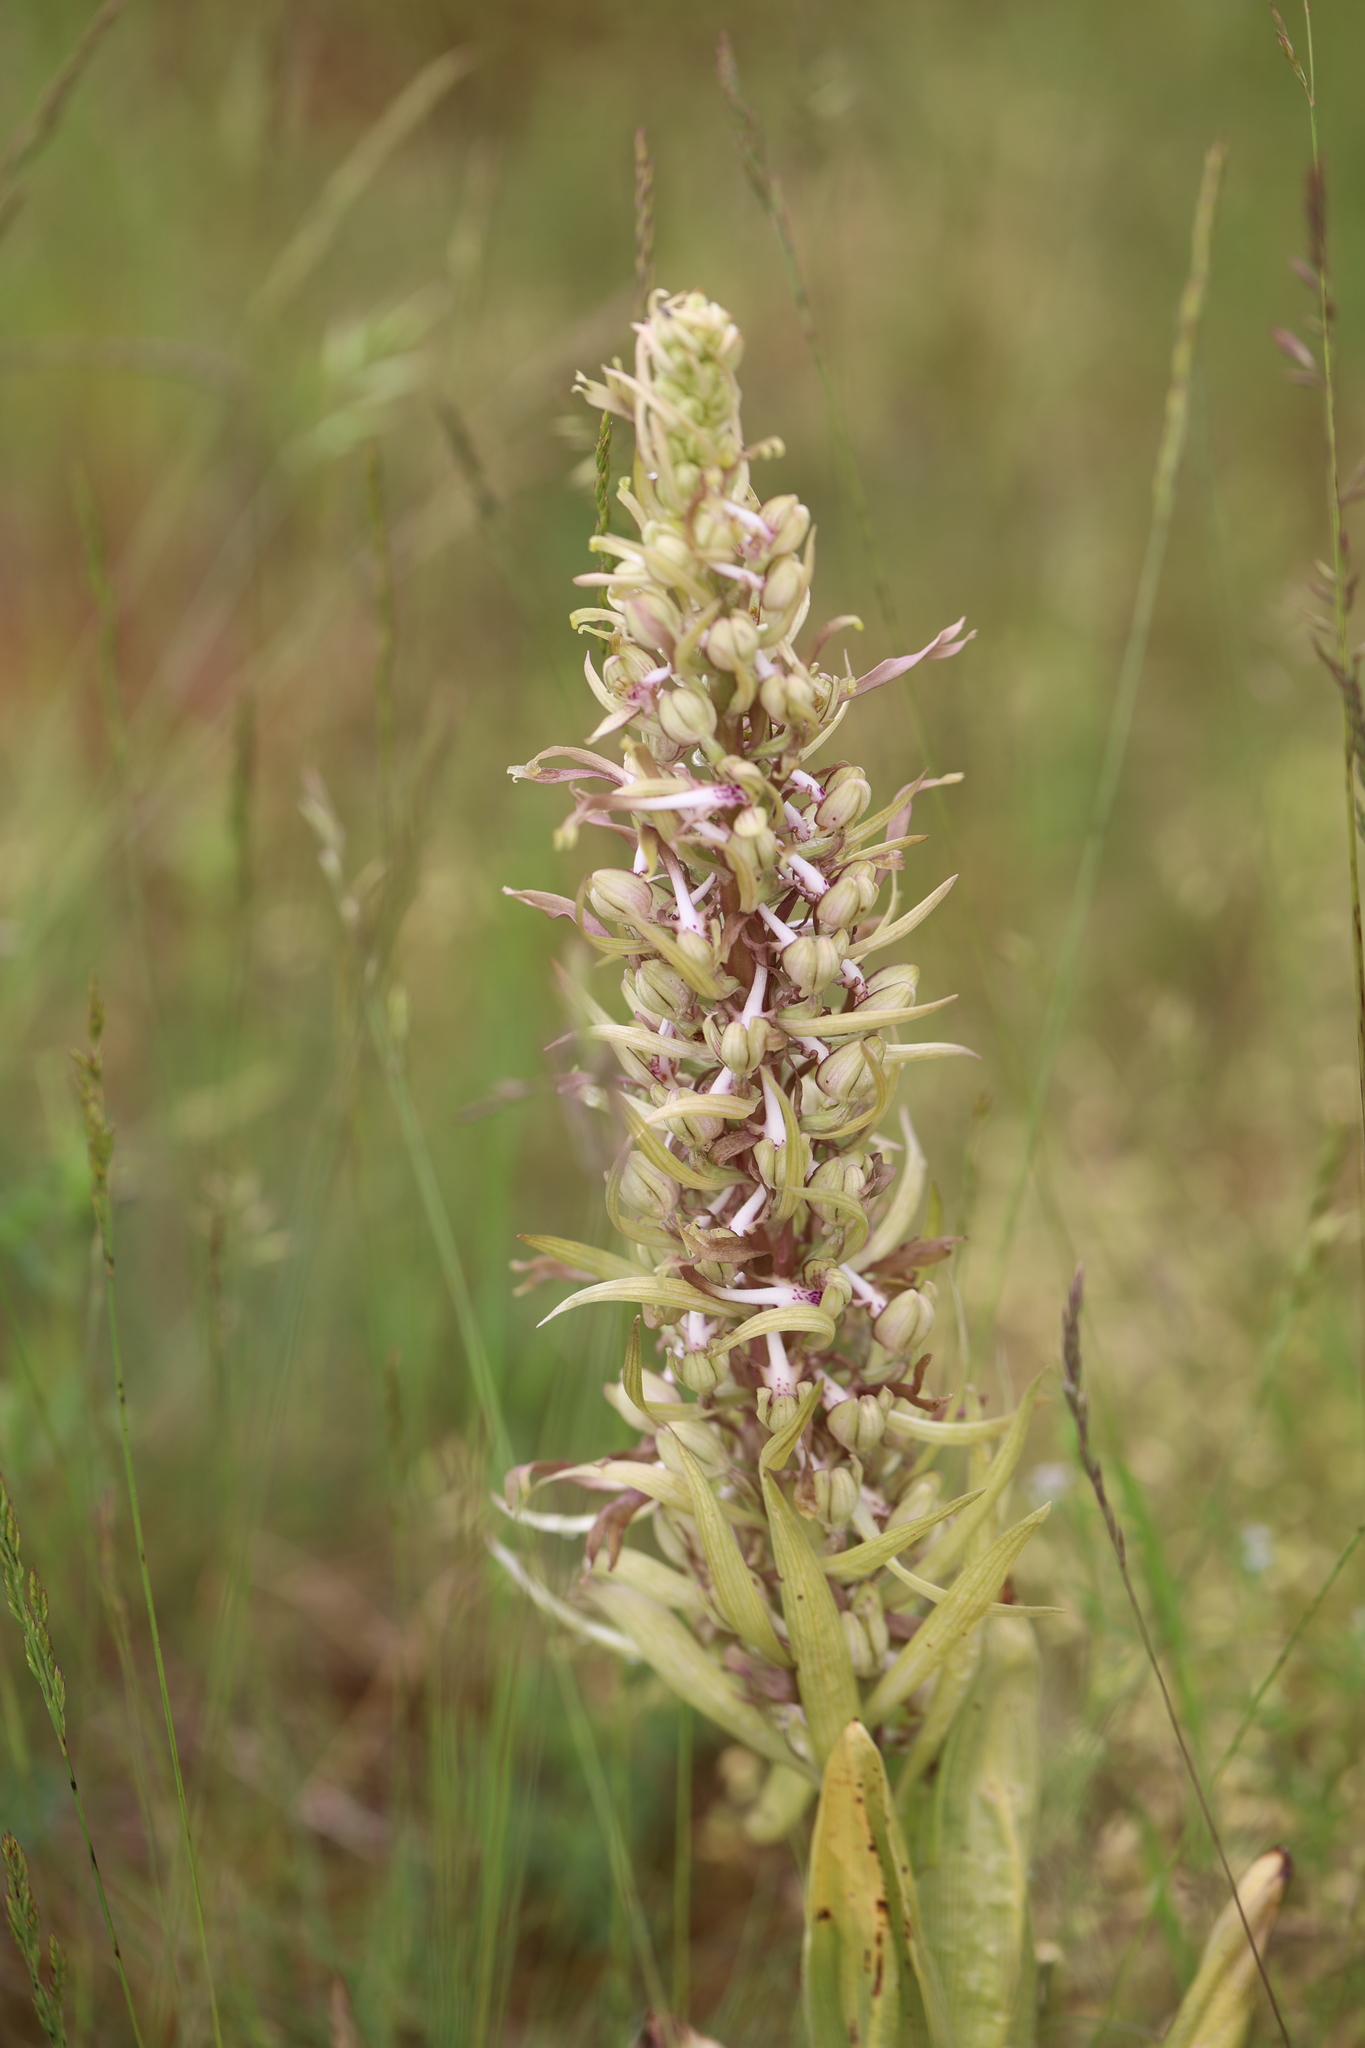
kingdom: Plantae
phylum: Tracheophyta
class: Liliopsida
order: Asparagales
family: Orchidaceae
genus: Himantoglossum
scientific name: Himantoglossum hircinum
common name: Lizard orchid
